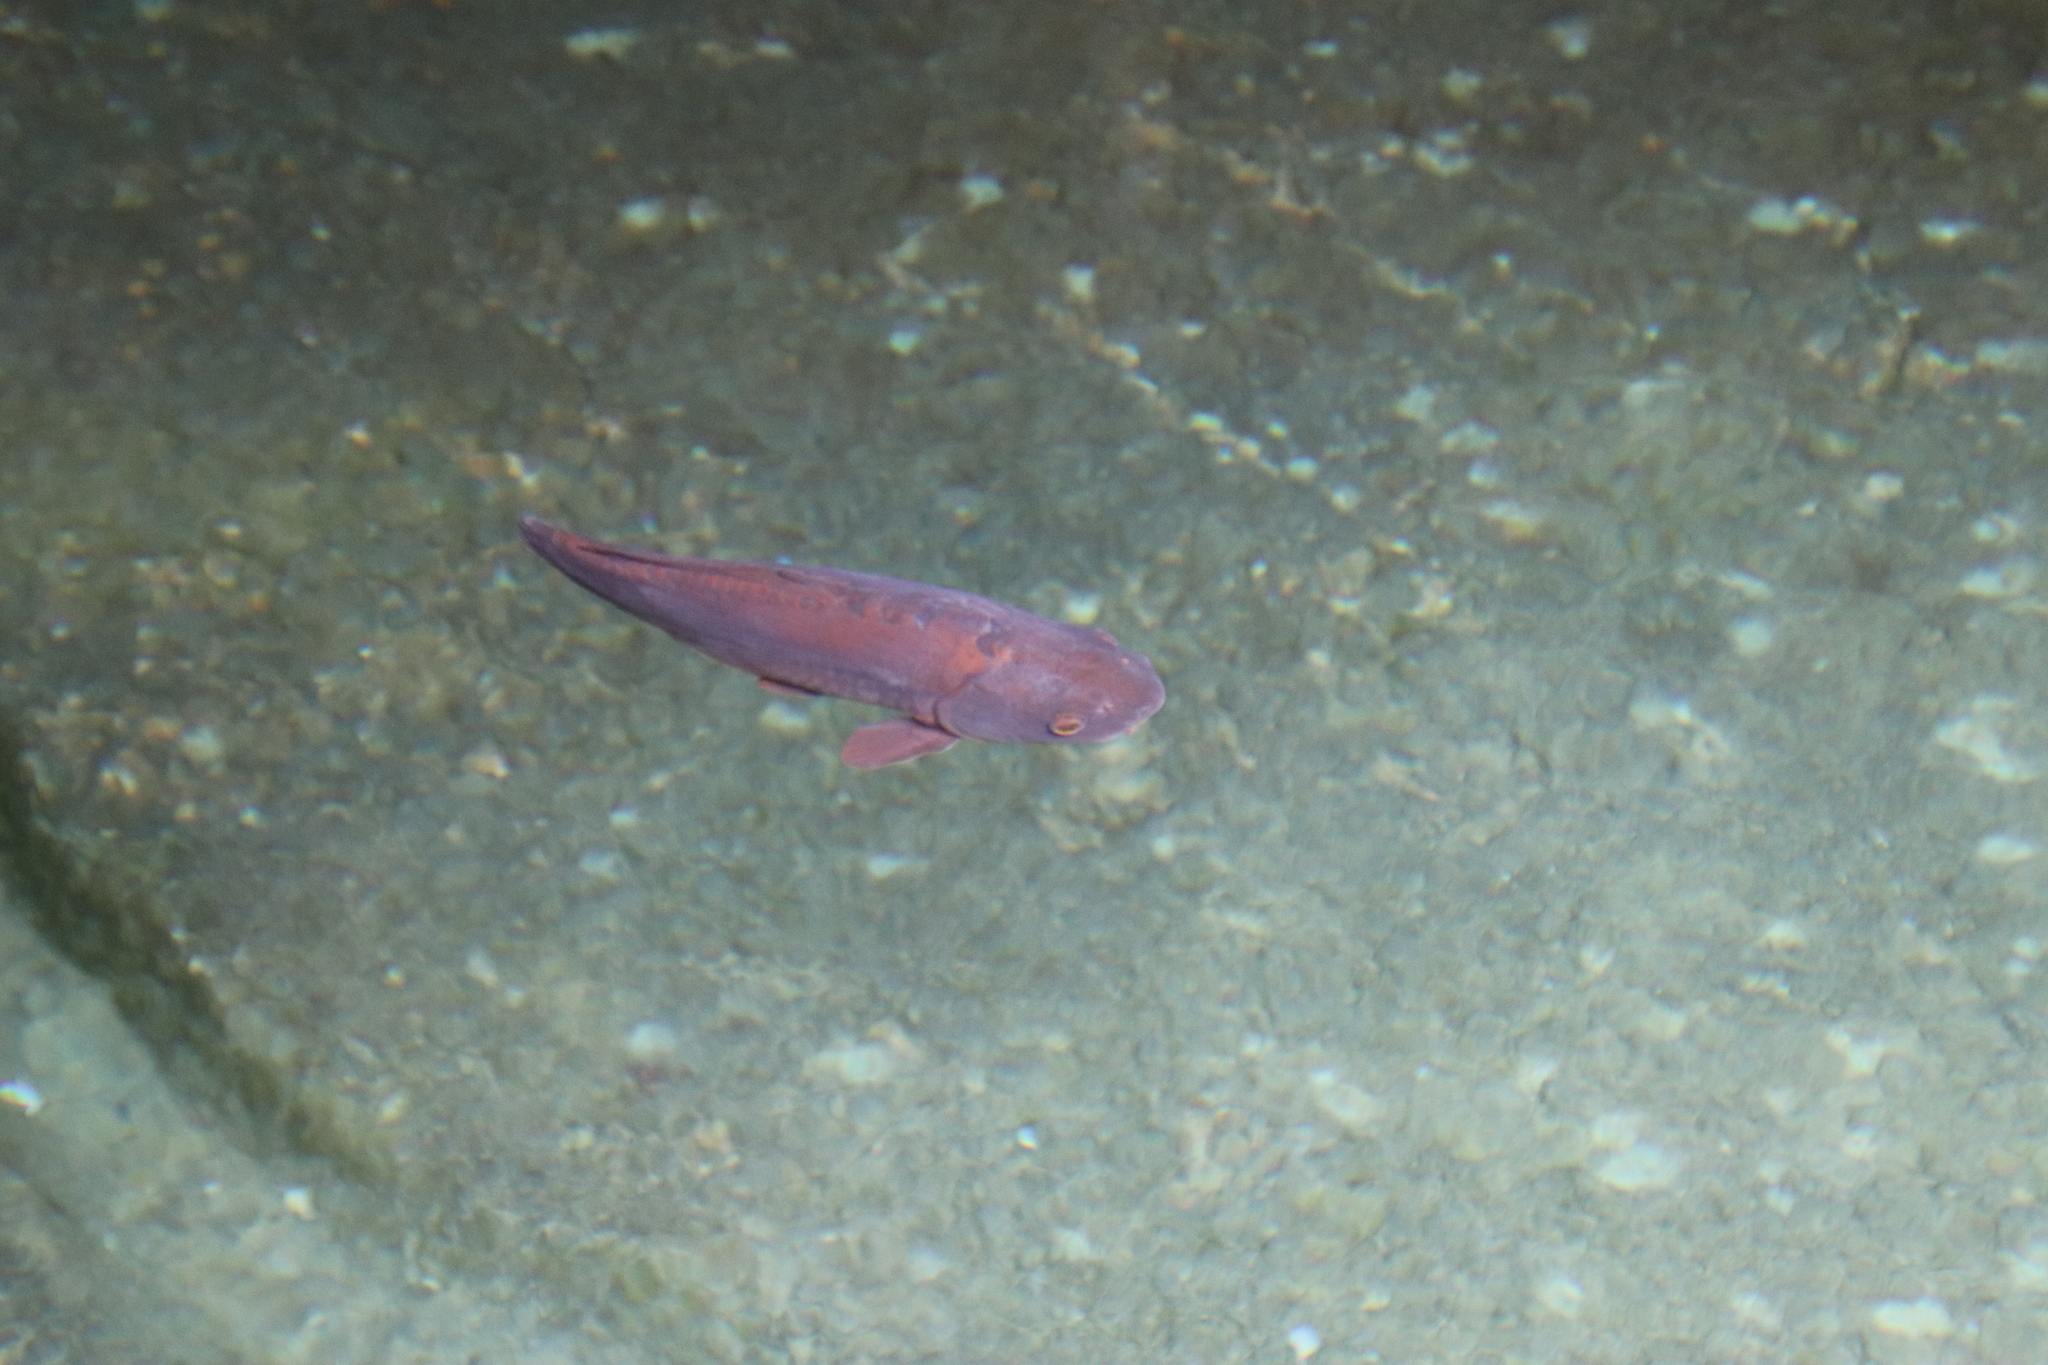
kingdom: Animalia
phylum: Chordata
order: Cypriniformes
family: Cyprinidae
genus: Cyprinus
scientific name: Cyprinus carpio
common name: Common carp
